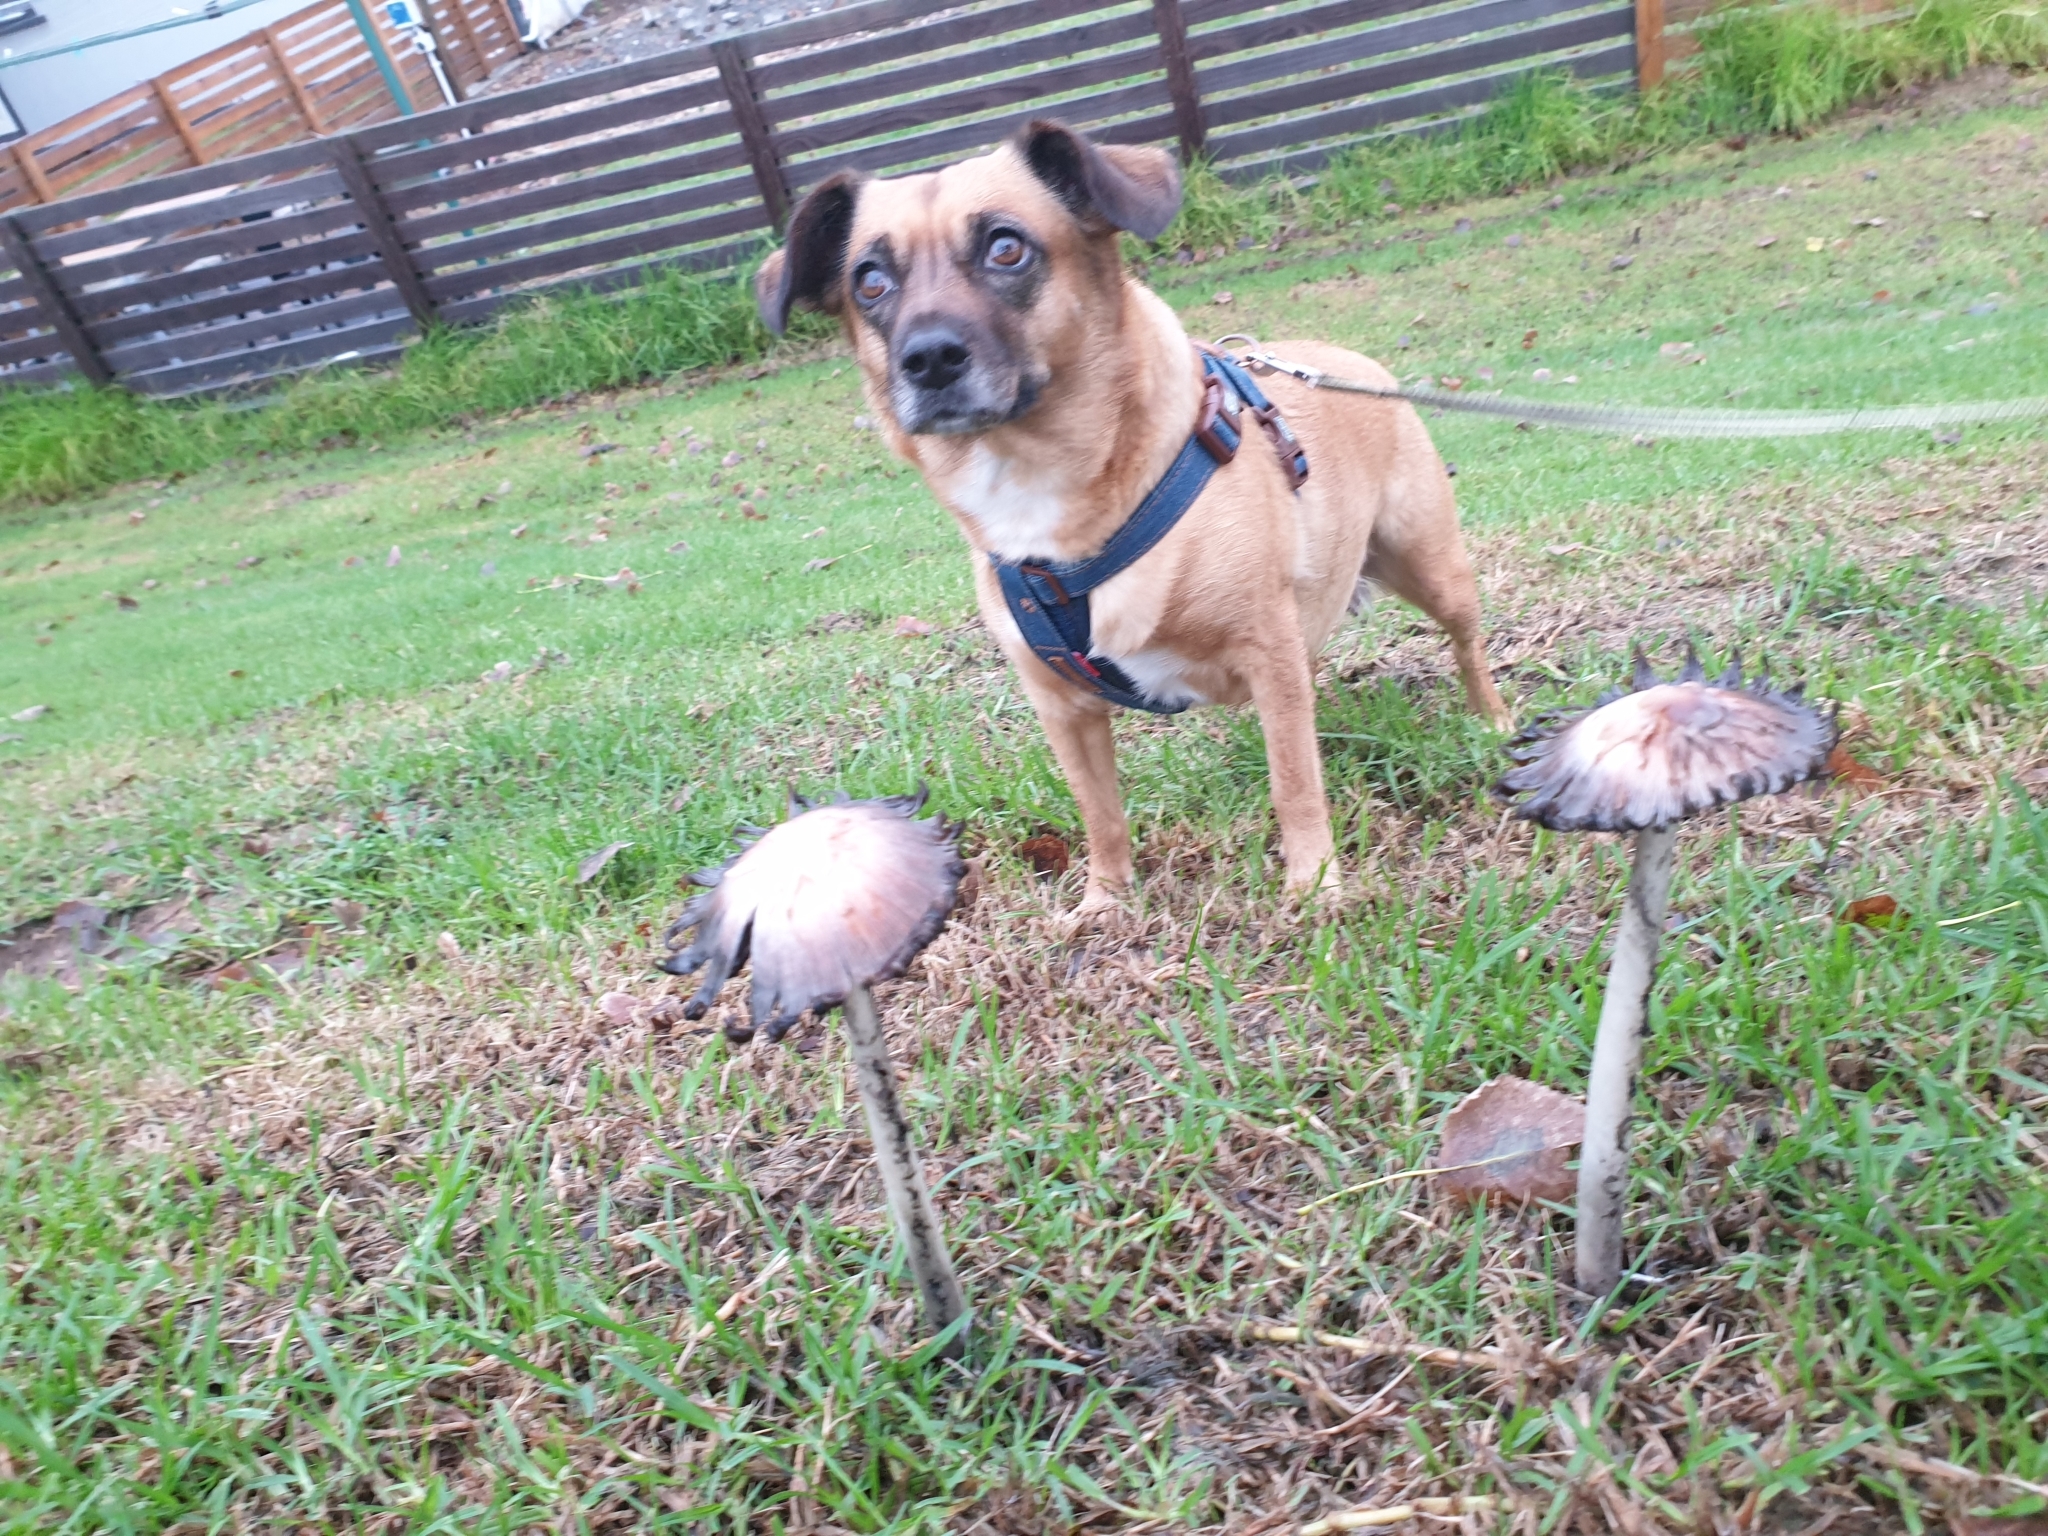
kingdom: Fungi
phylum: Basidiomycota
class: Agaricomycetes
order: Agaricales
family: Agaricaceae
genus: Coprinus
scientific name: Coprinus comatus
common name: Lawyer's wig
